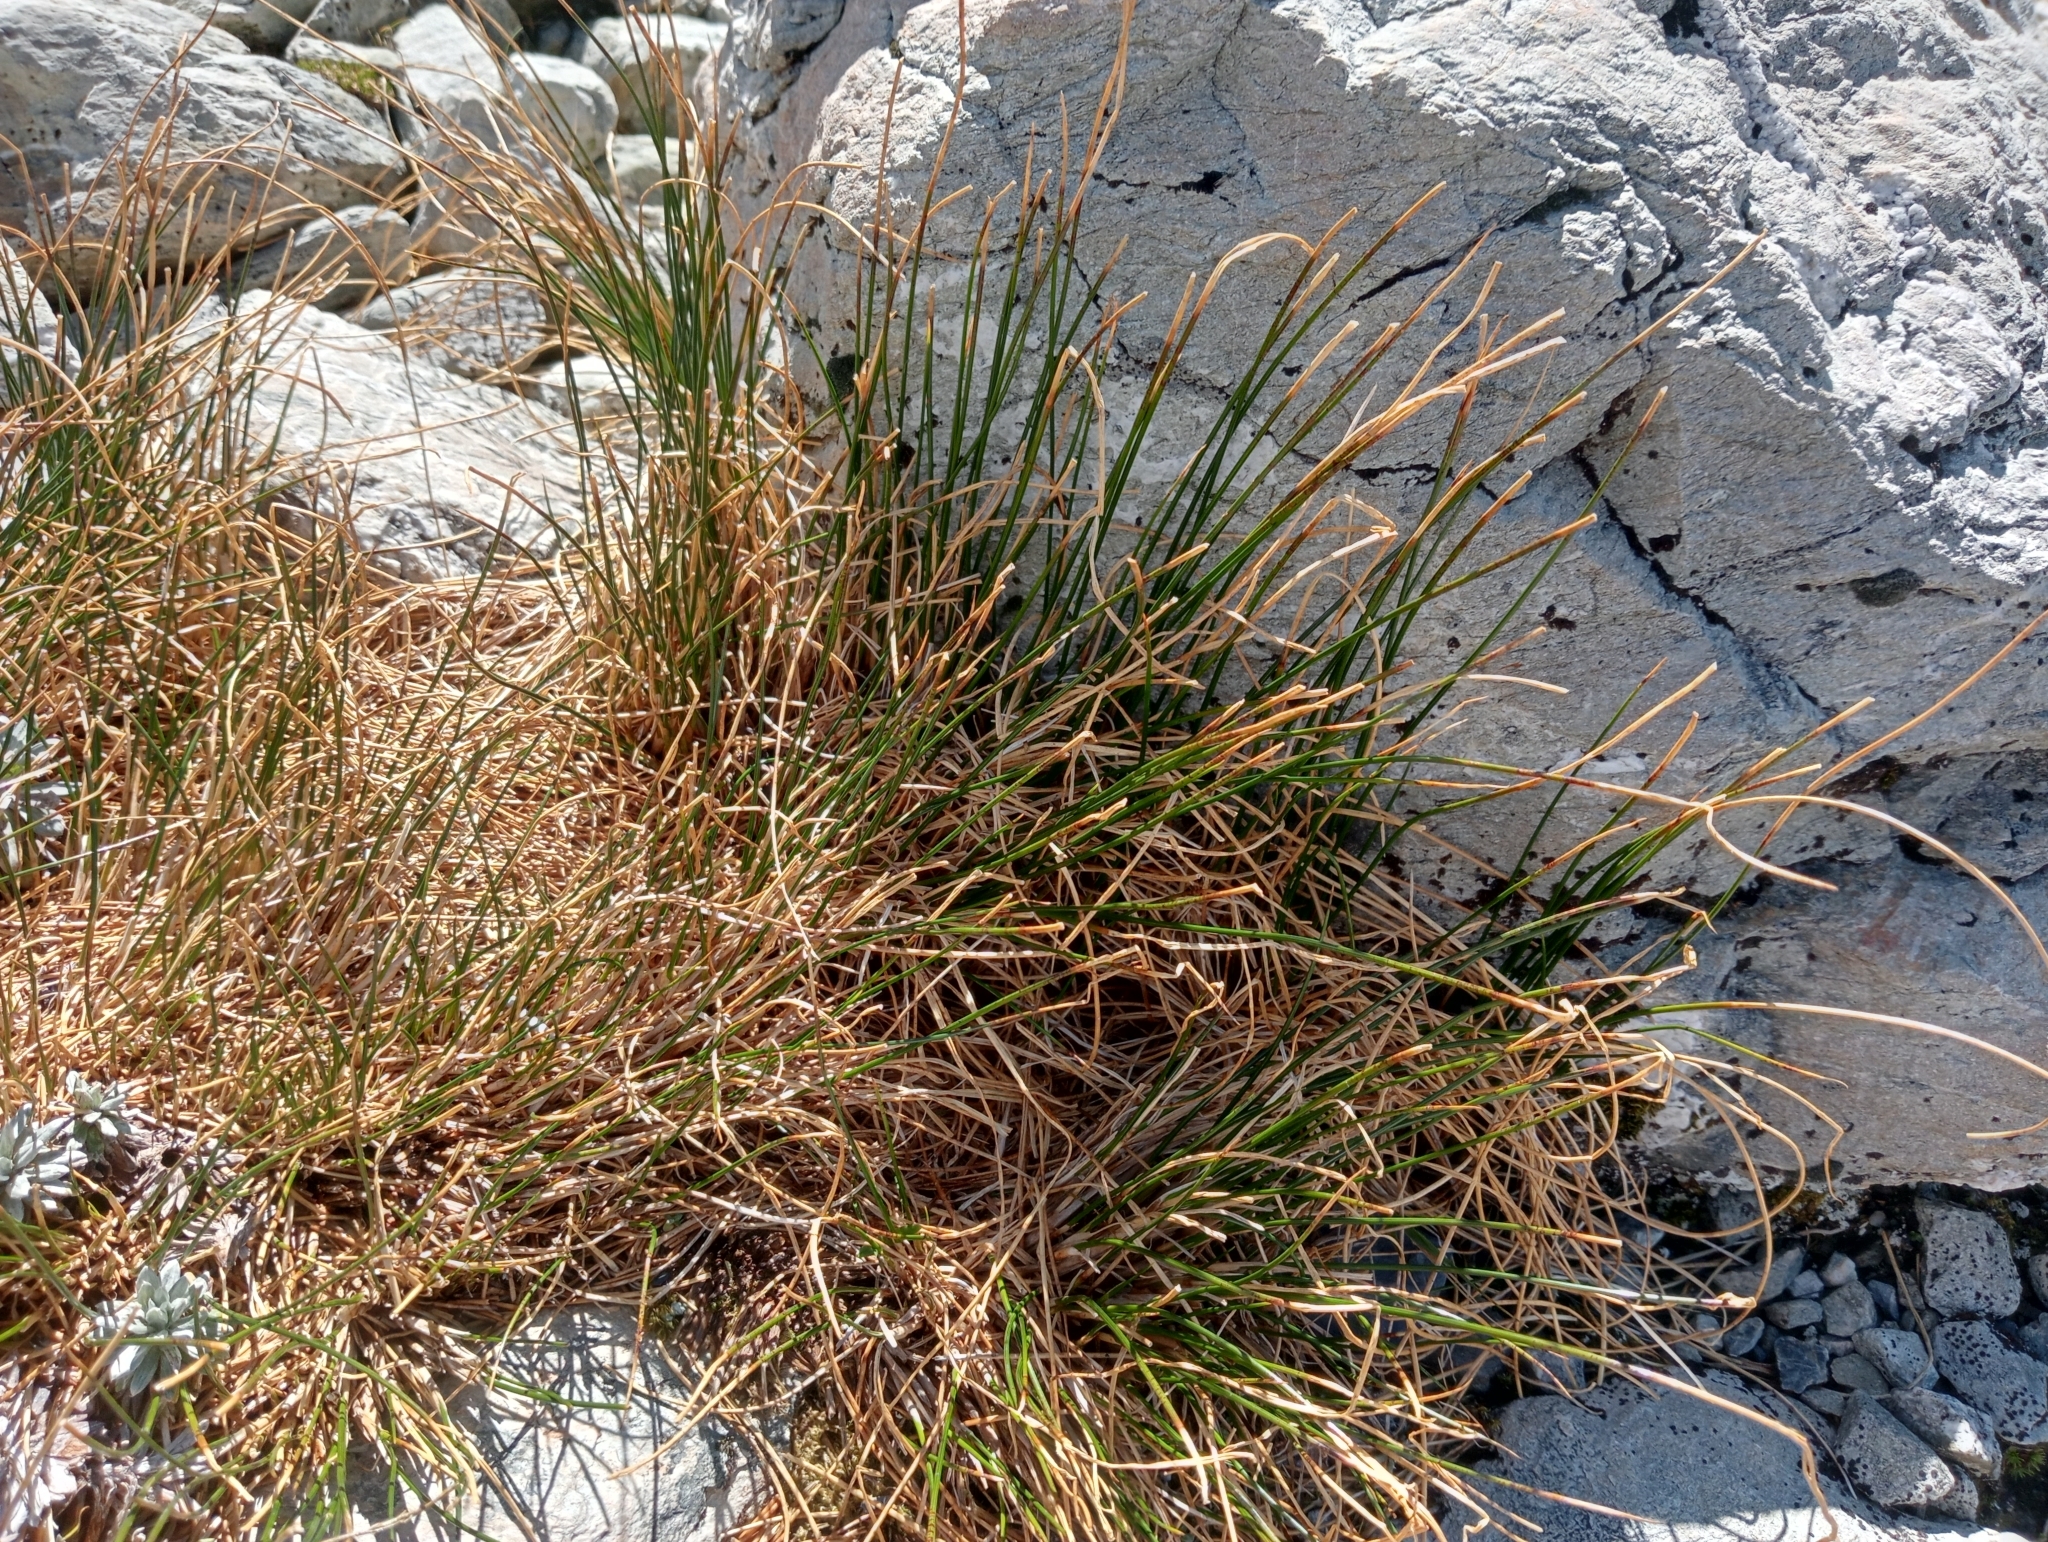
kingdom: Plantae
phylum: Tracheophyta
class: Liliopsida
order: Poales
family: Juncaceae
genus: Marsippospermum
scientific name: Marsippospermum gracile
